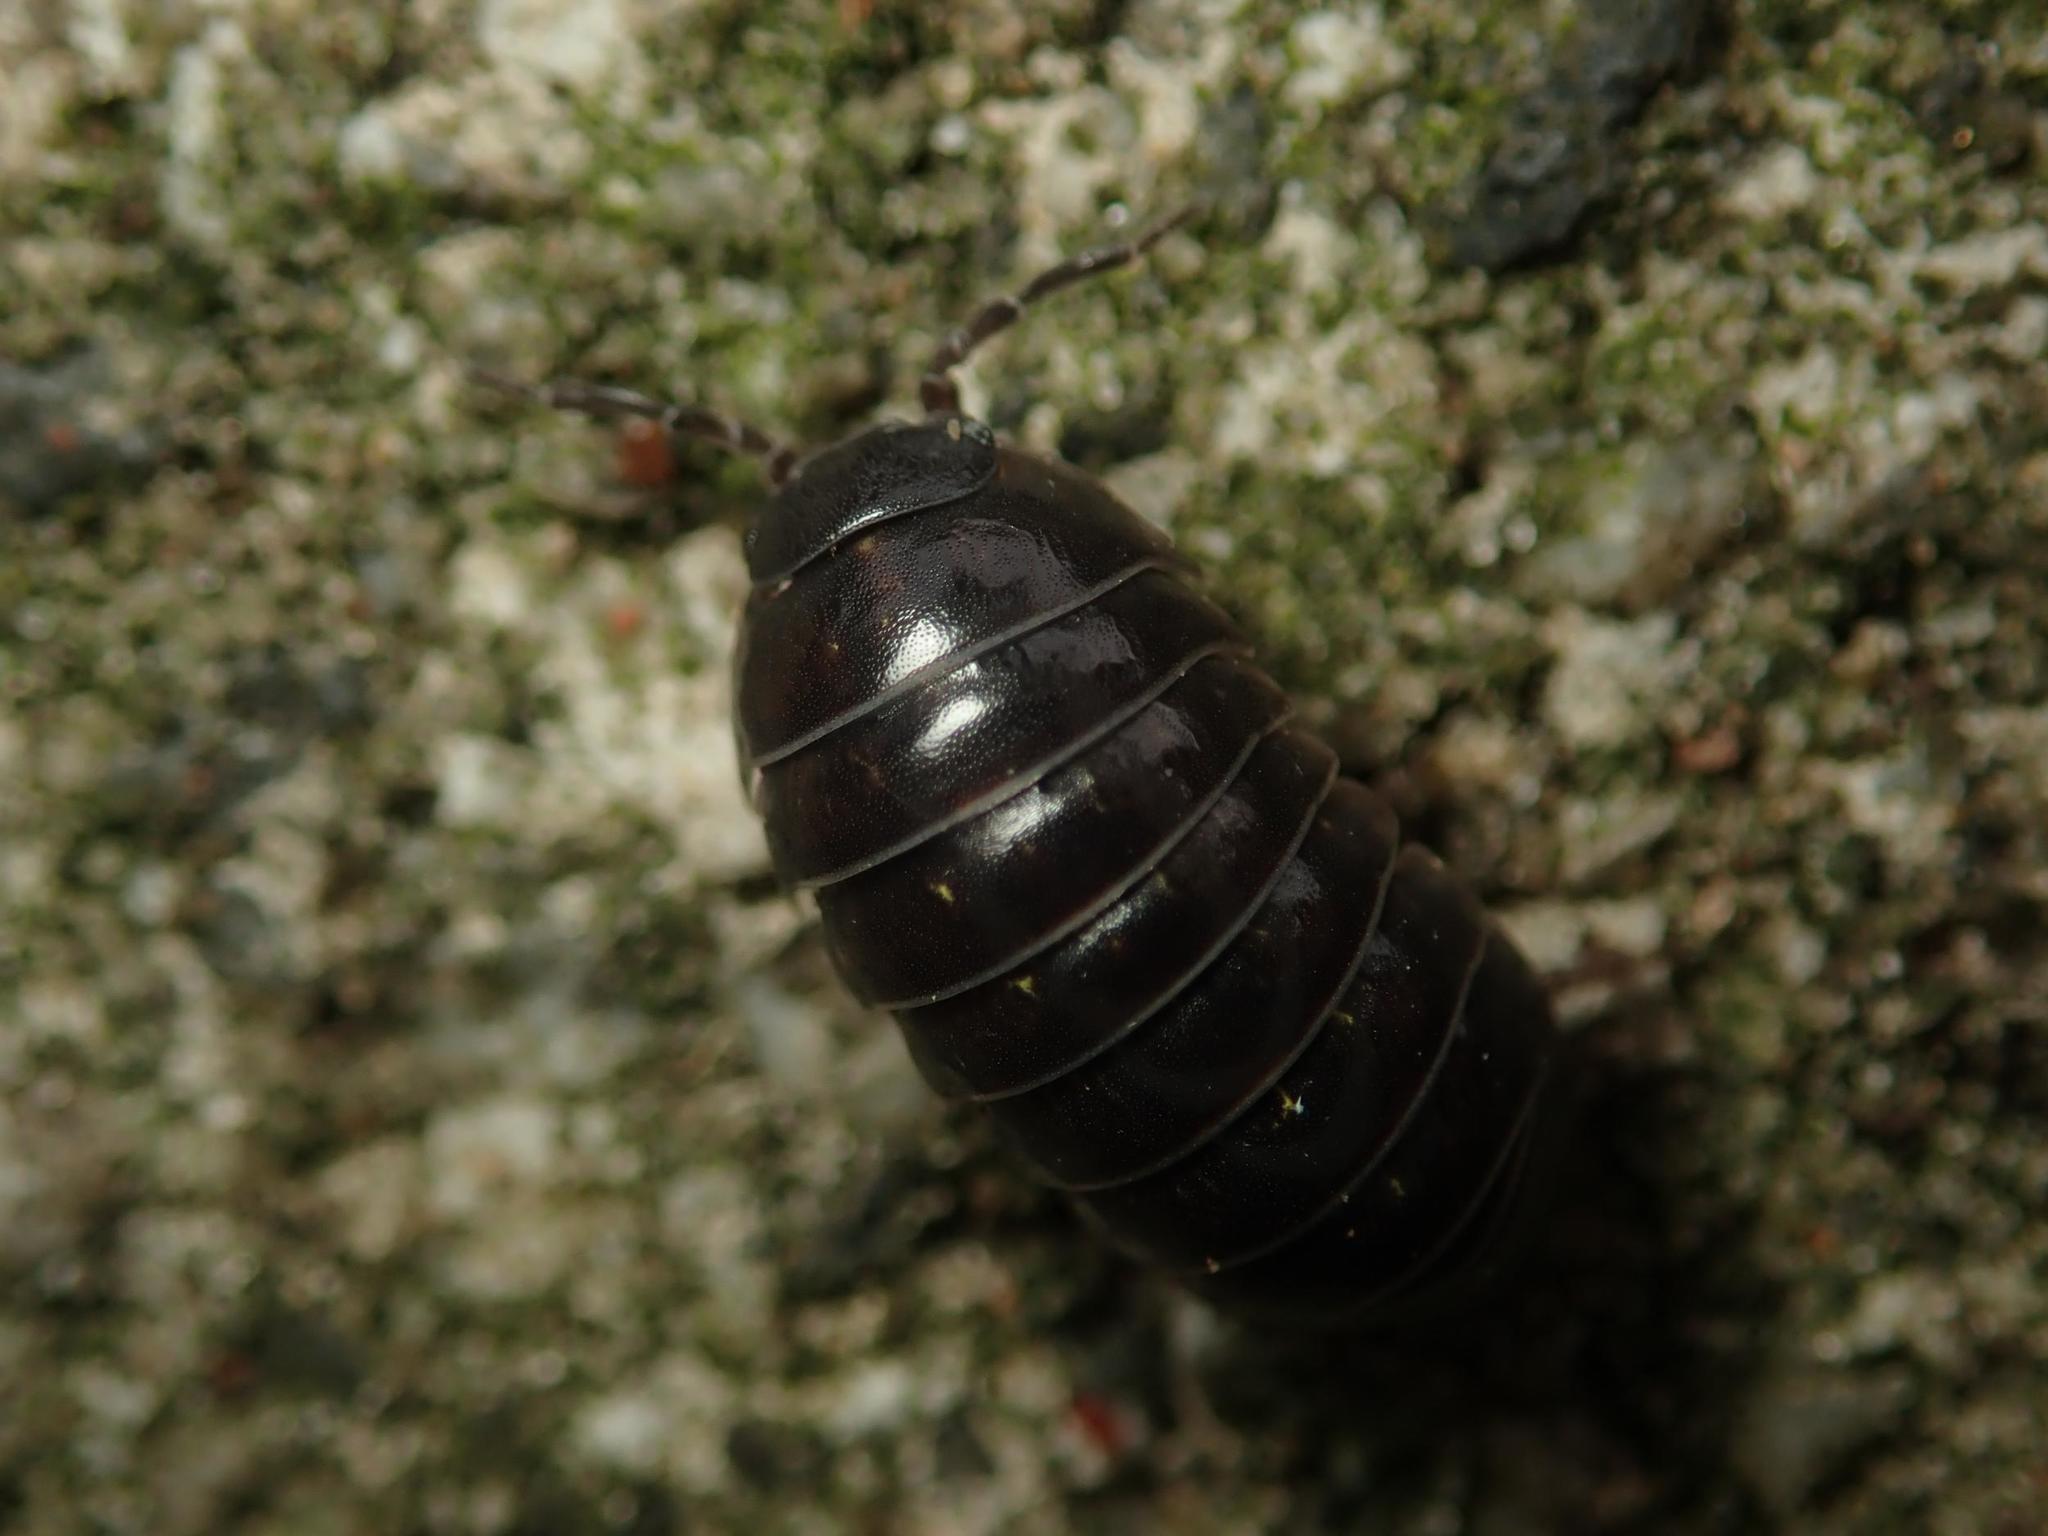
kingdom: Animalia
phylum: Arthropoda
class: Malacostraca
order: Isopoda
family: Armadillidiidae
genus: Armadillidium
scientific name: Armadillidium vulgare
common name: Common pill woodlouse
